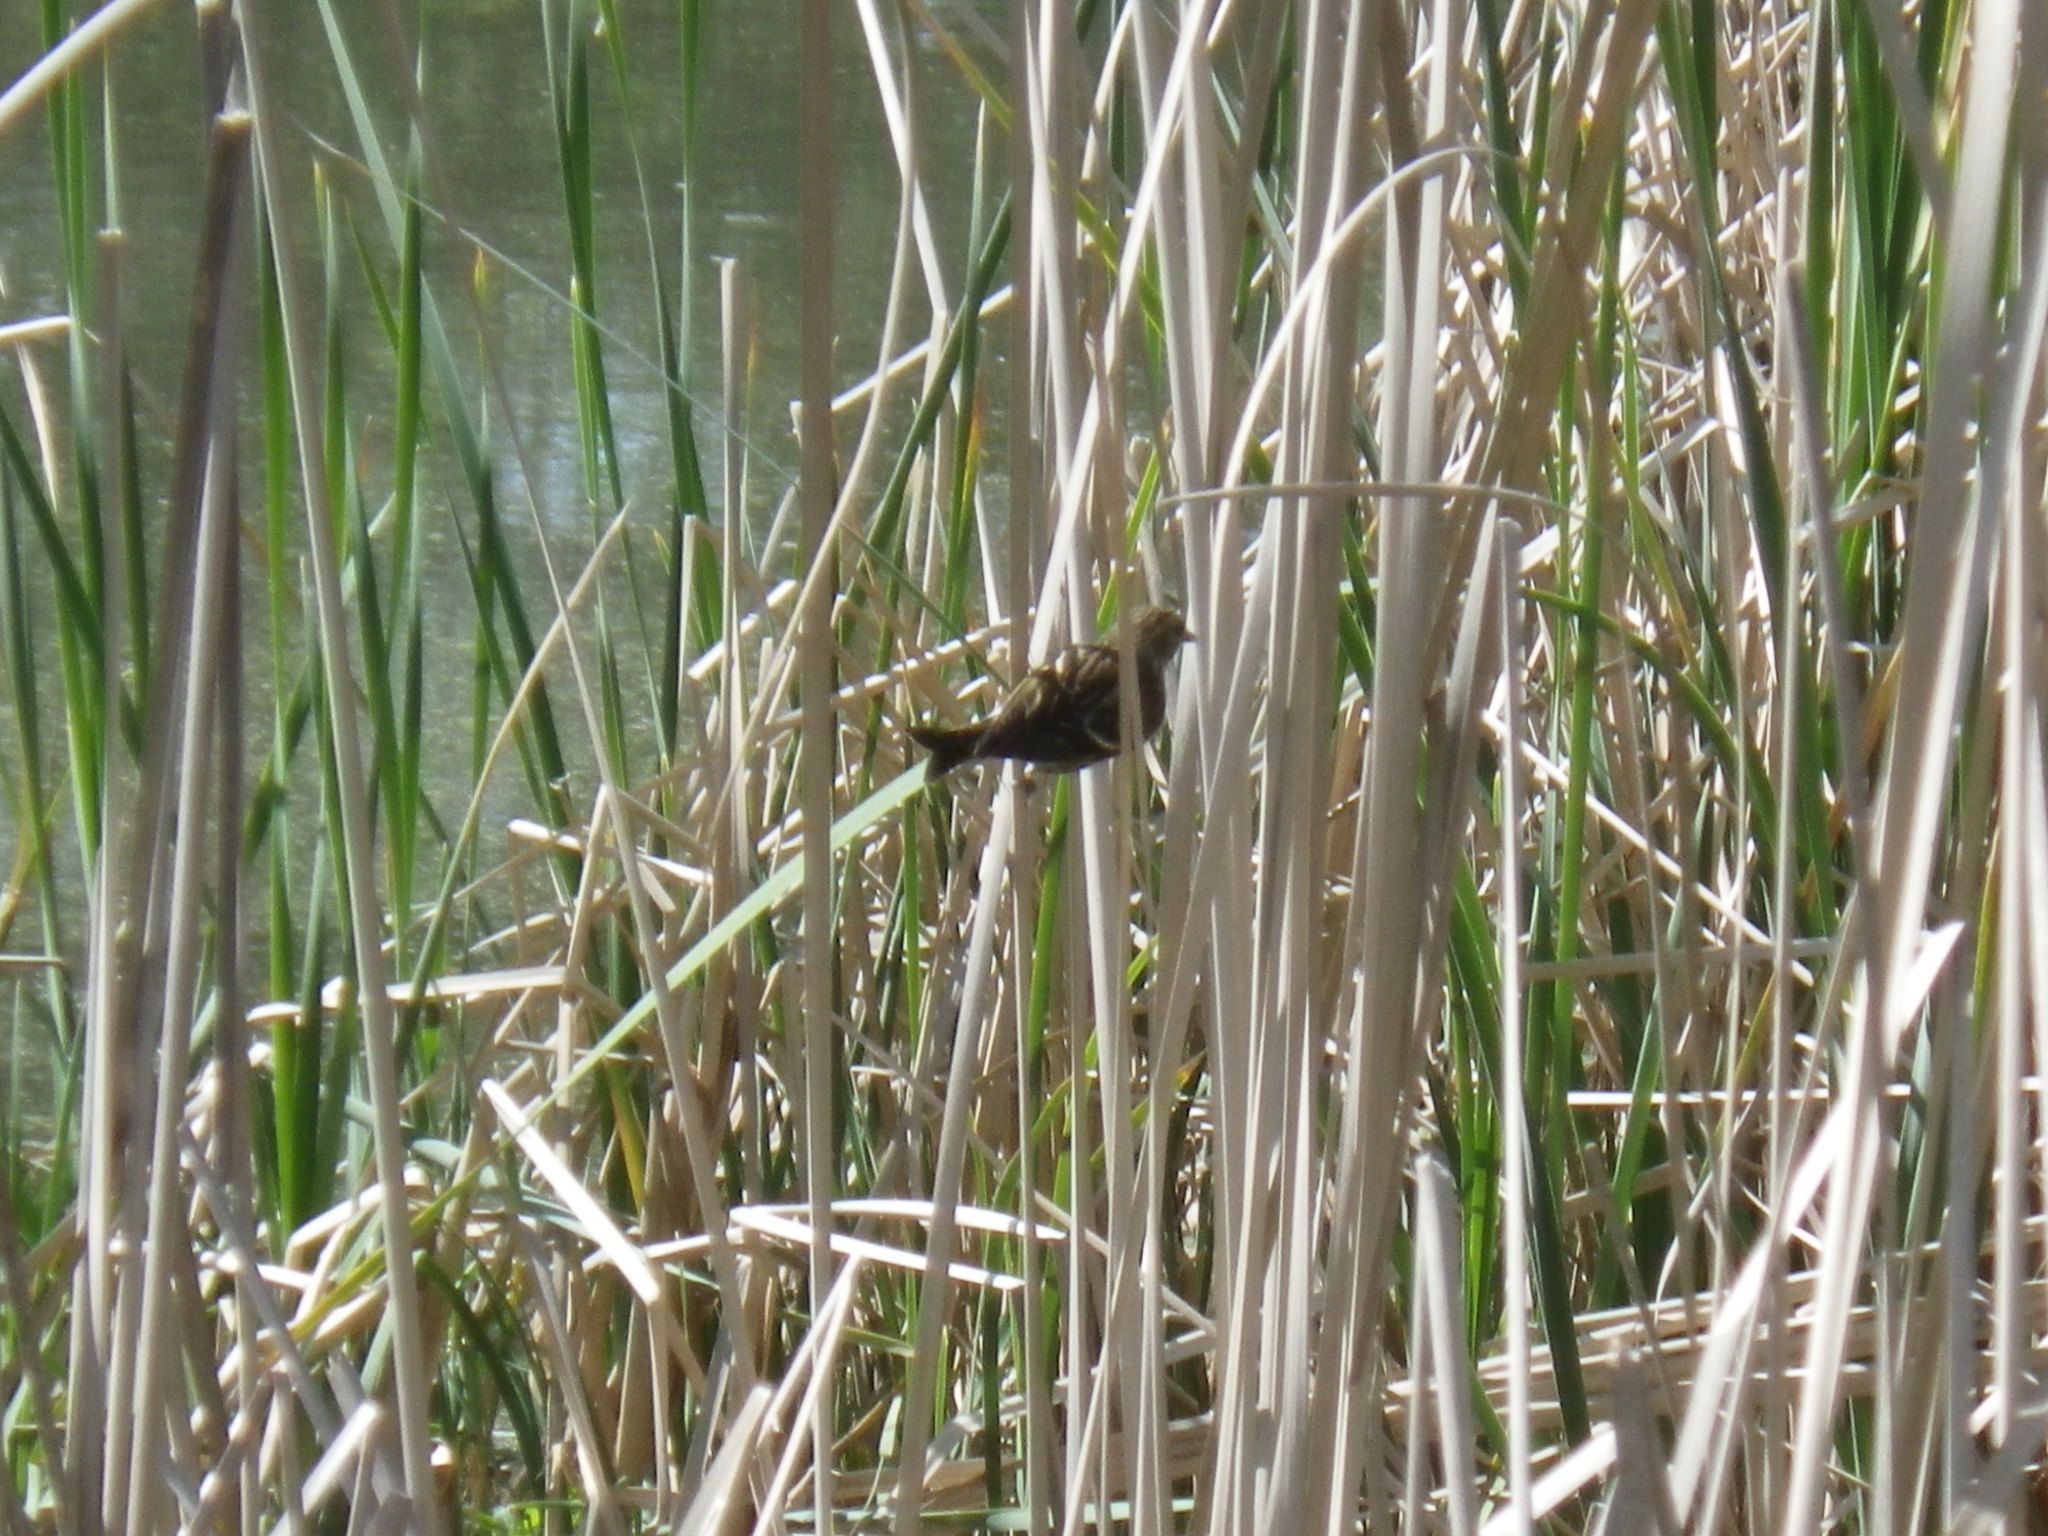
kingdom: Animalia
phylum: Chordata
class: Aves
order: Passeriformes
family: Fringillidae
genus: Spinus
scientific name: Spinus pinus
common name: Pine siskin
